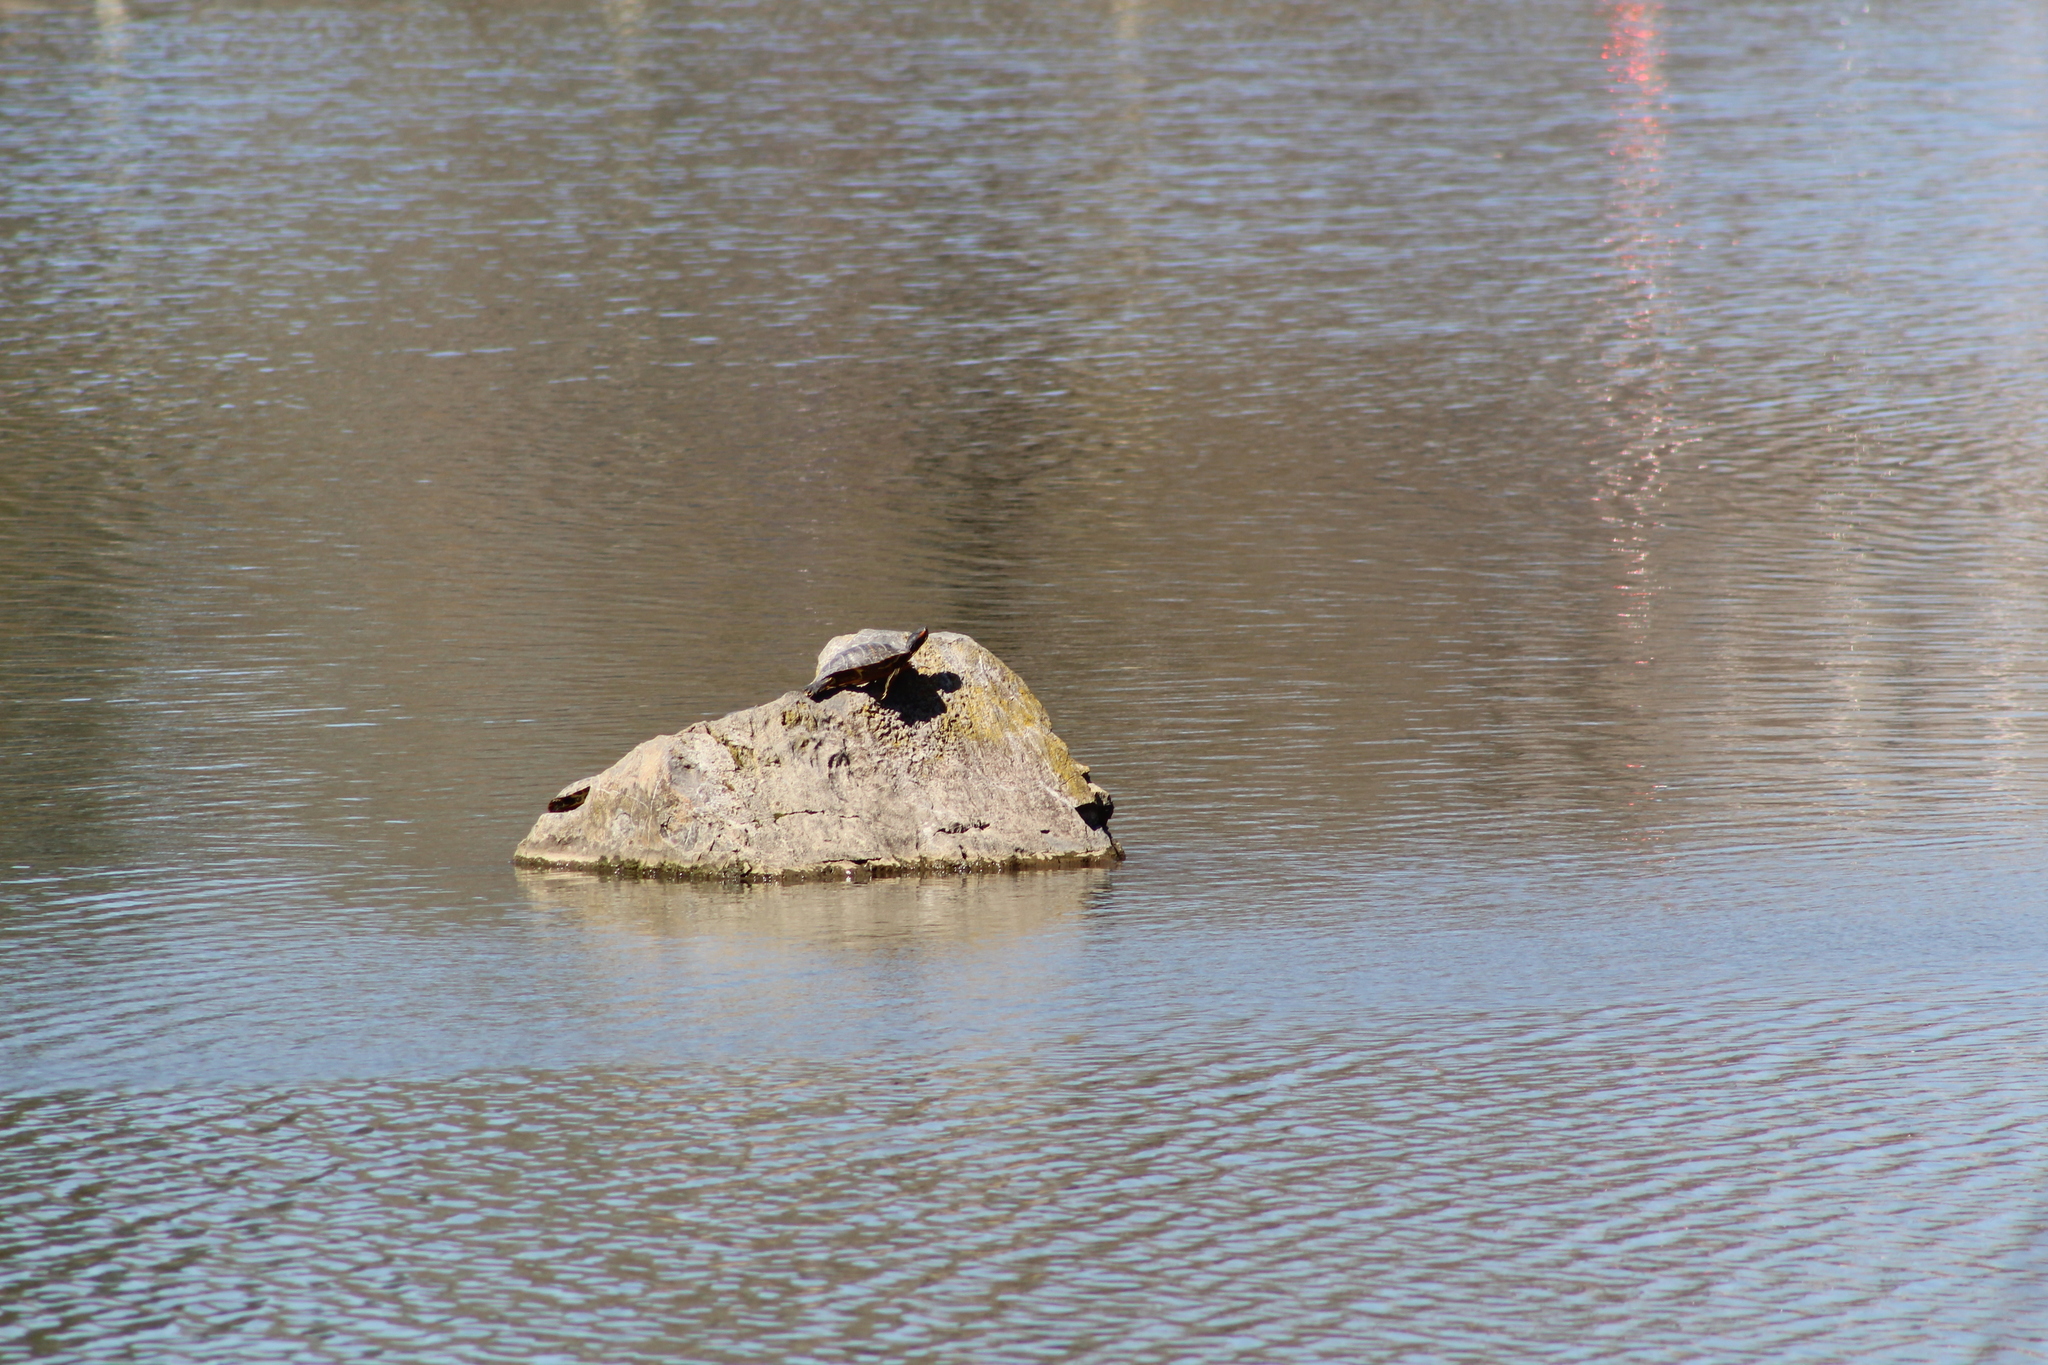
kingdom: Animalia
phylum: Chordata
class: Testudines
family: Emydidae
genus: Trachemys
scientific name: Trachemys scripta
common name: Slider
